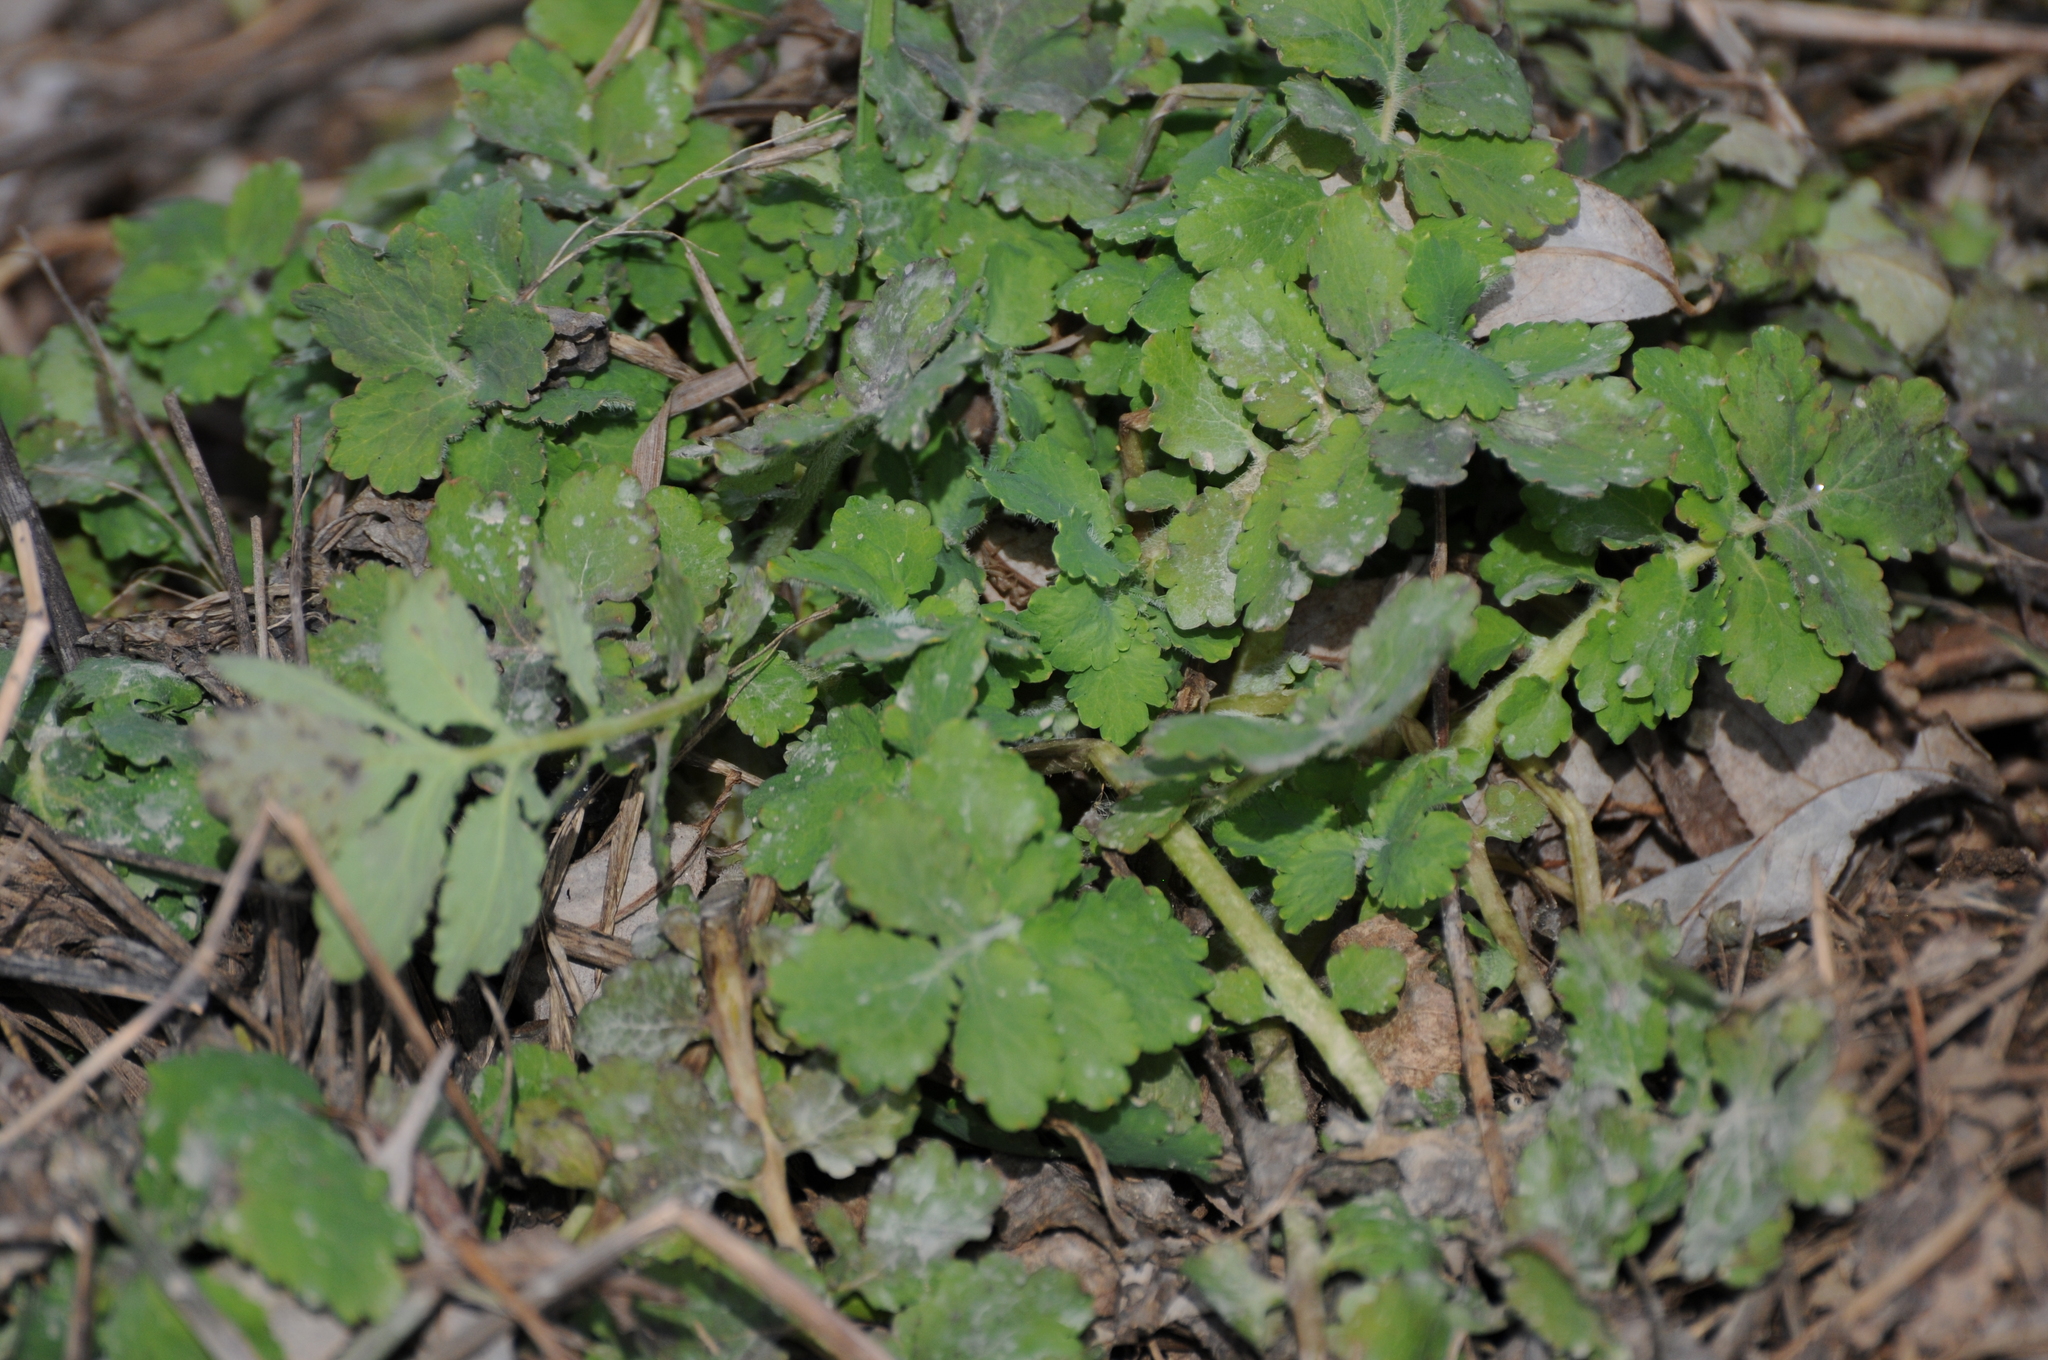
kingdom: Plantae
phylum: Tracheophyta
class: Magnoliopsida
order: Ranunculales
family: Papaveraceae
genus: Chelidonium
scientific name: Chelidonium majus
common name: Greater celandine
